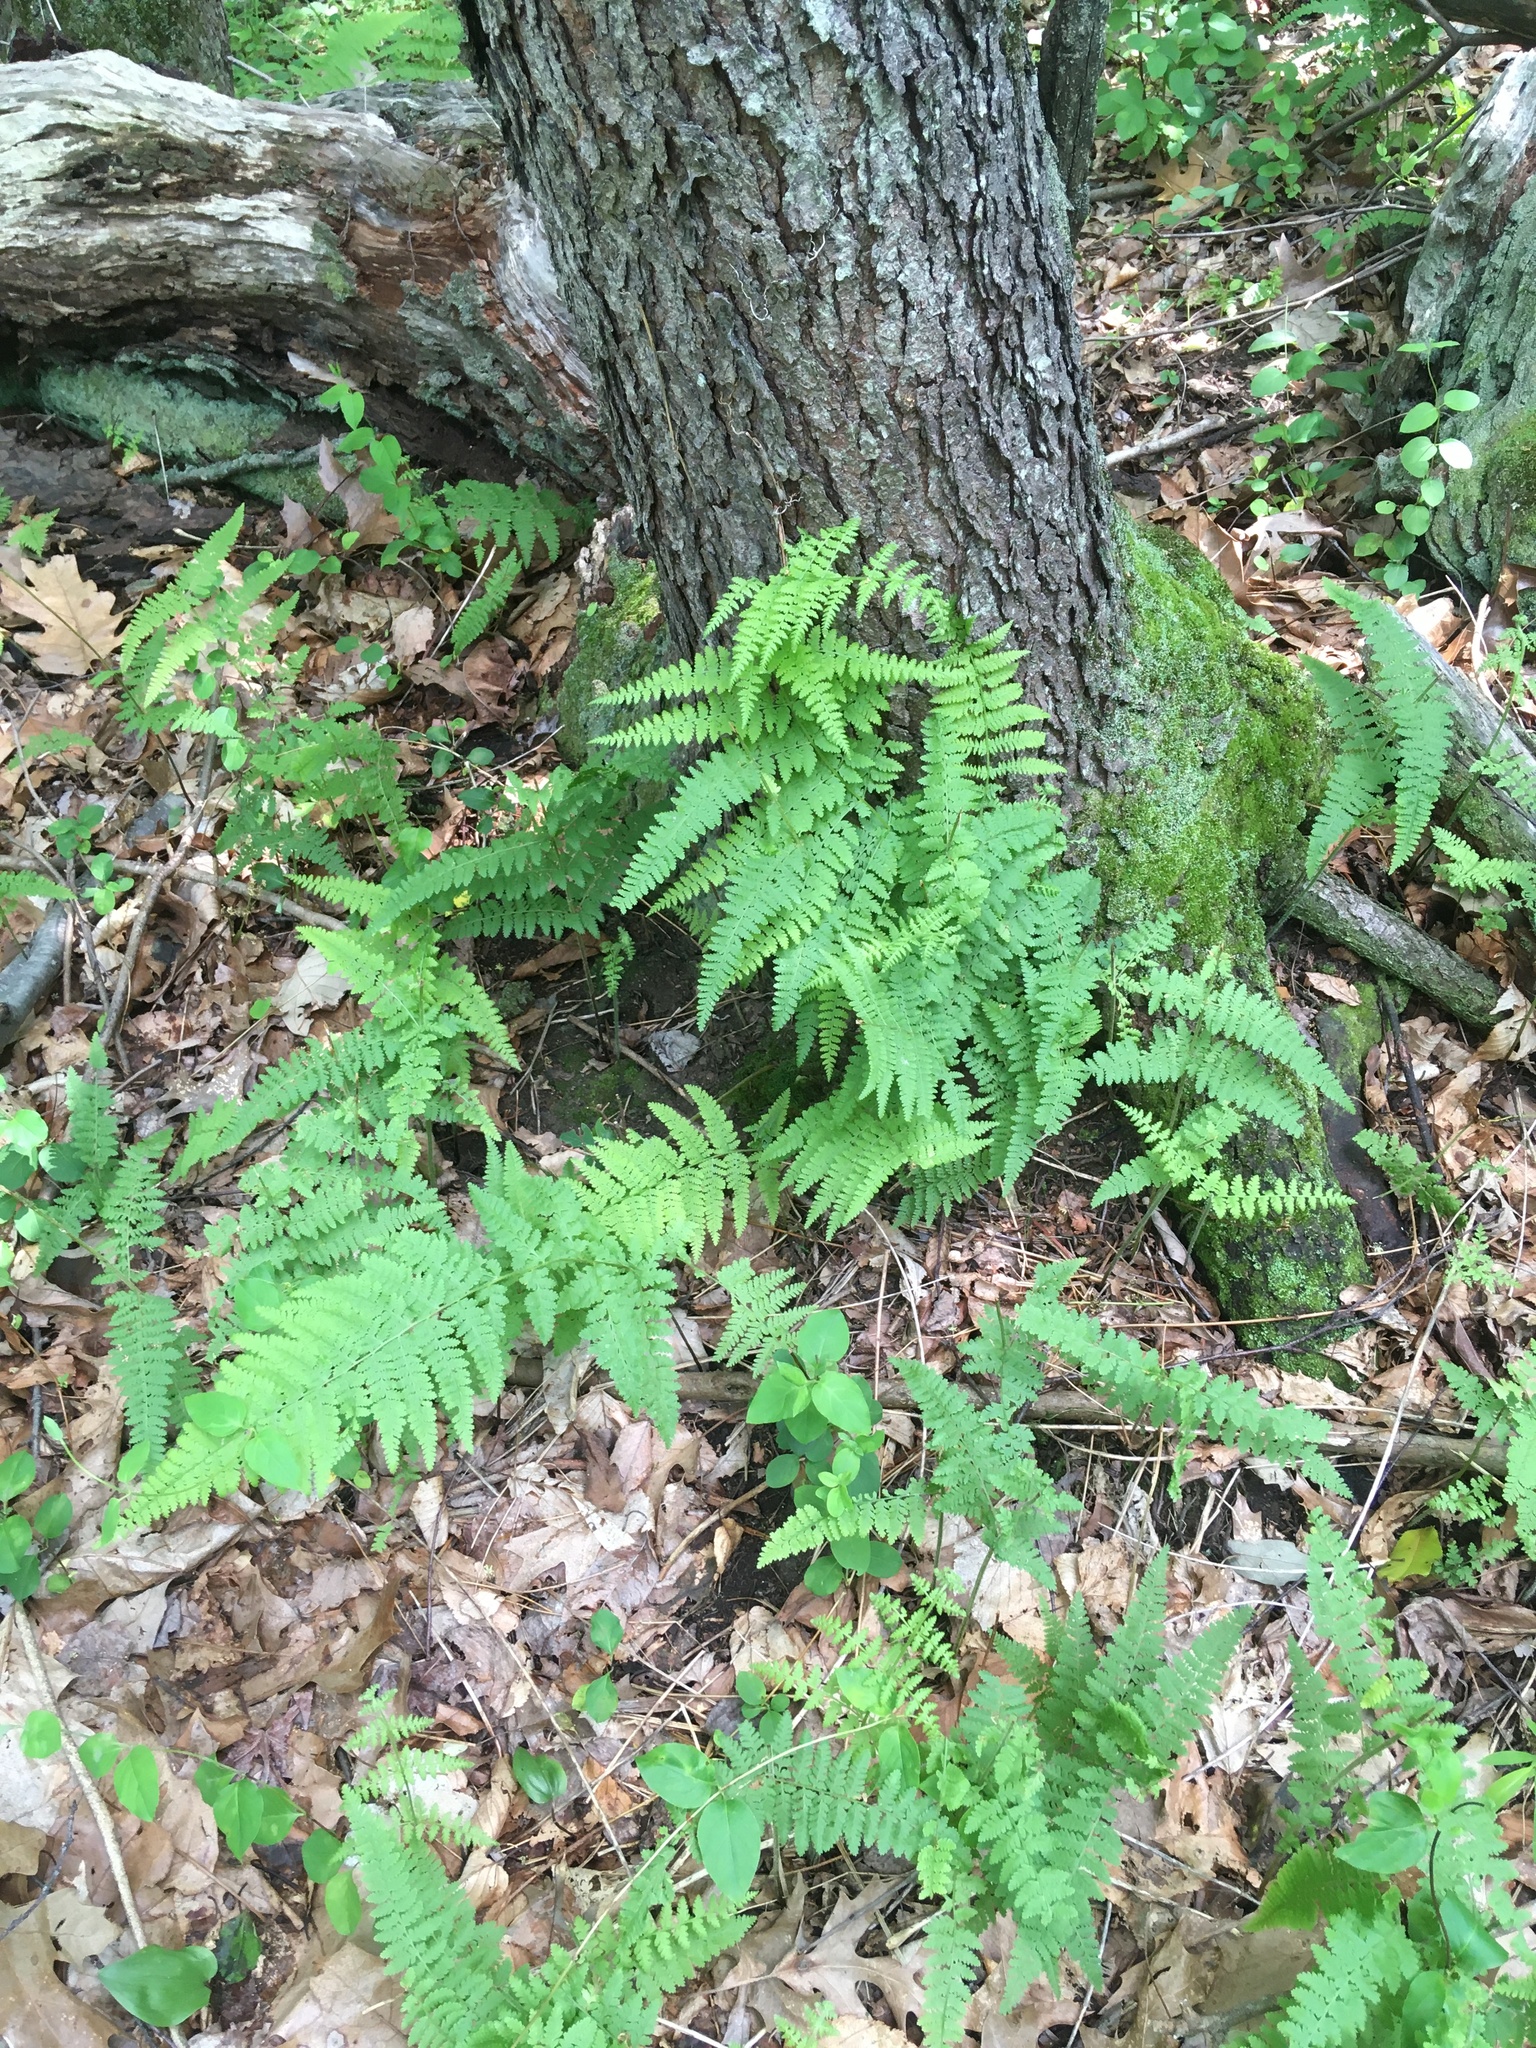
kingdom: Plantae
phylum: Tracheophyta
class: Polypodiopsida
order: Polypodiales
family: Dennstaedtiaceae
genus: Sitobolium
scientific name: Sitobolium punctilobum
